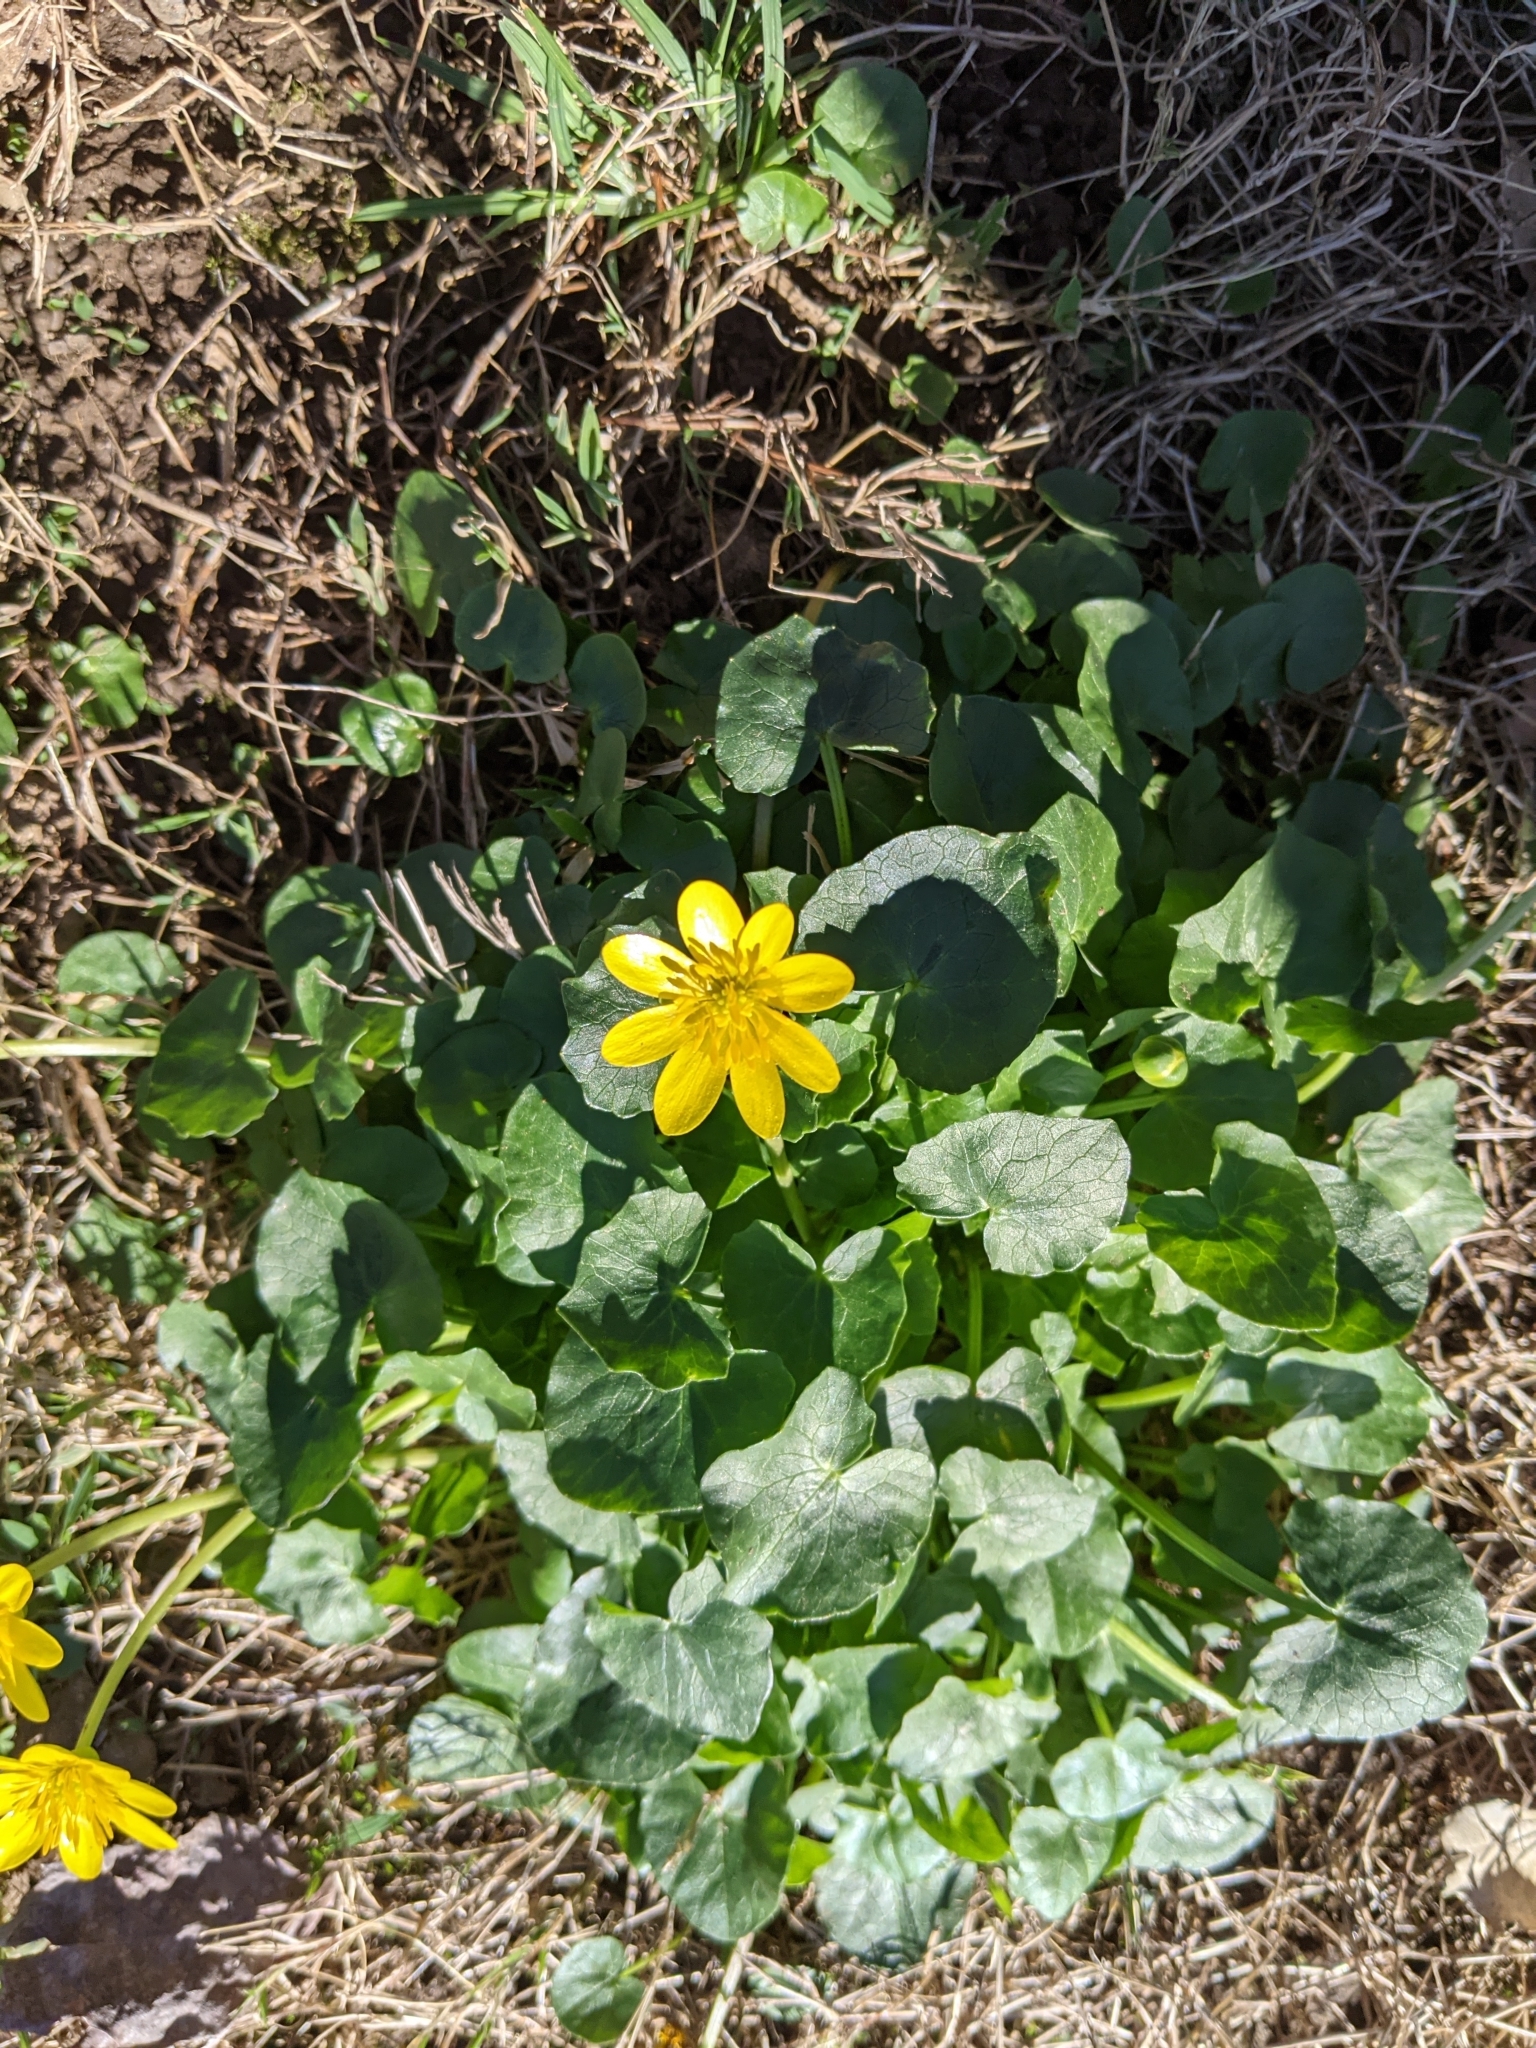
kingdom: Plantae
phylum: Tracheophyta
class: Magnoliopsida
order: Ranunculales
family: Ranunculaceae
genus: Ficaria
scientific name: Ficaria verna
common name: Lesser celandine
